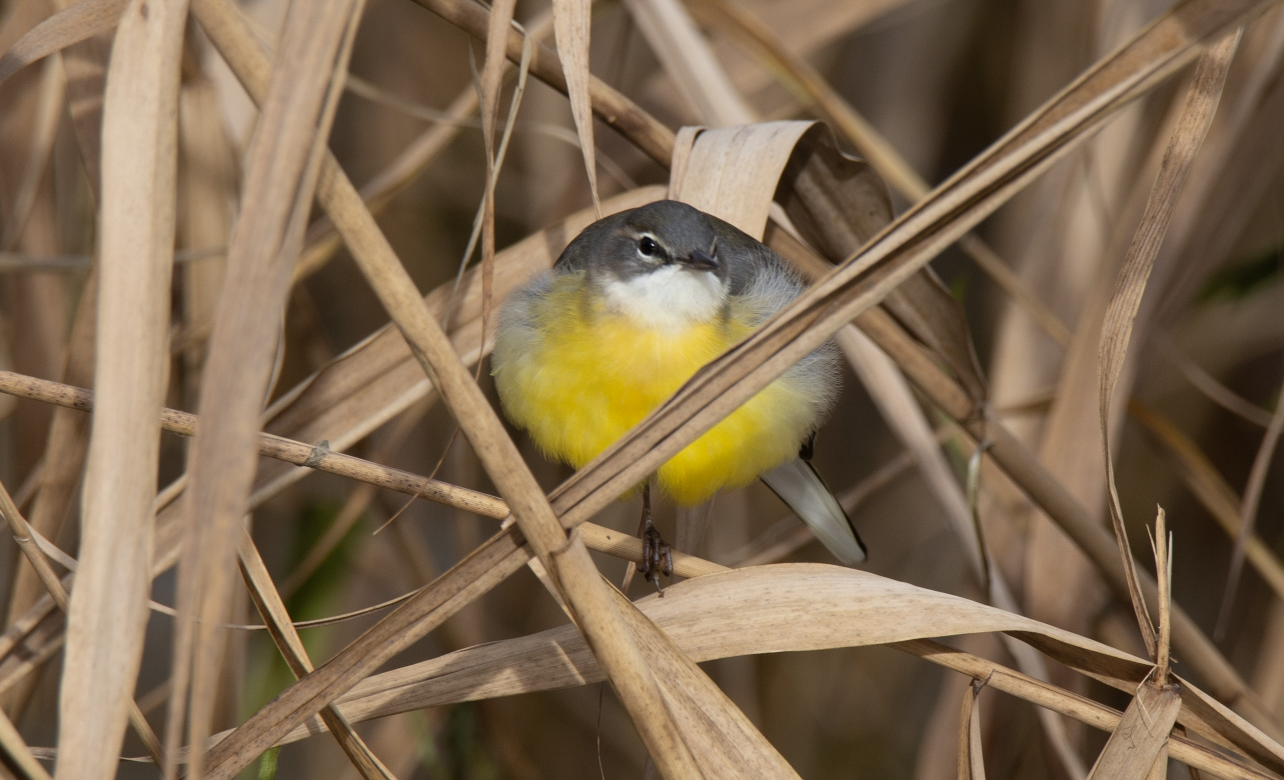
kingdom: Animalia
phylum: Chordata
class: Aves
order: Passeriformes
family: Motacillidae
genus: Motacilla
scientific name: Motacilla cinerea
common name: Grey wagtail
